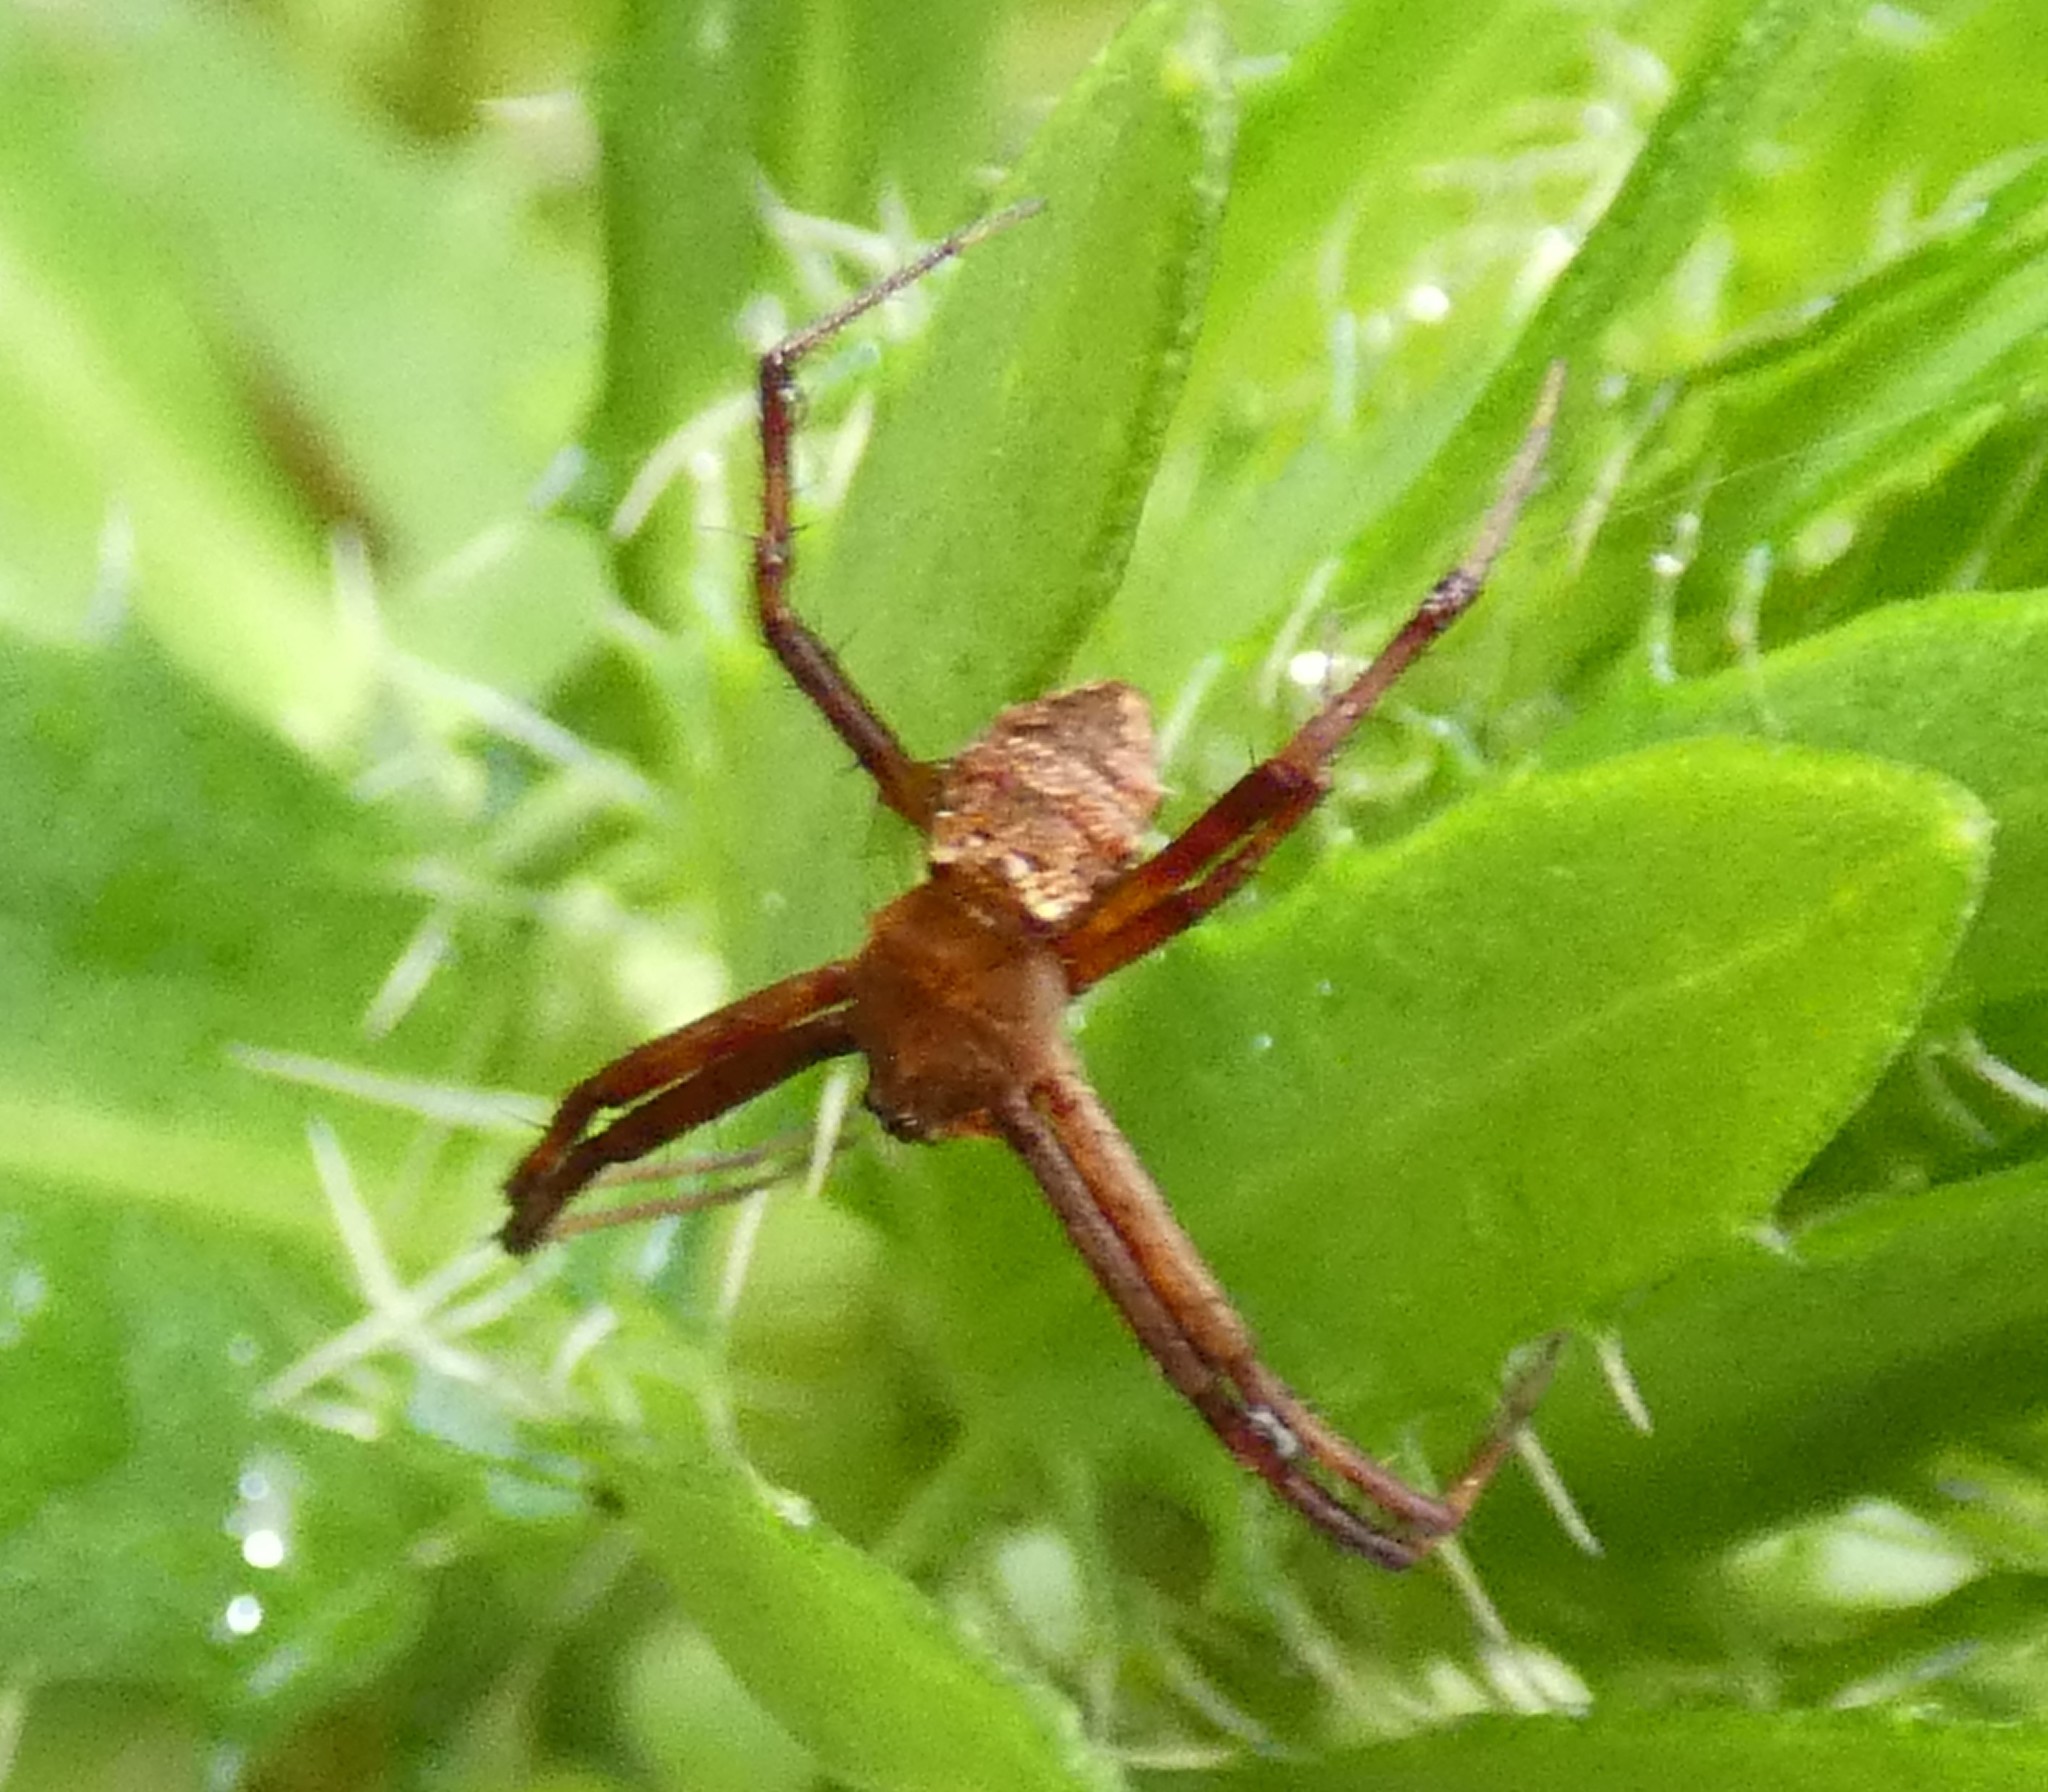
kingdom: Animalia
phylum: Arthropoda
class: Arachnida
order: Araneae
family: Araneidae
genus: Gea
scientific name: Gea heptagon
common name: Orb weavers
